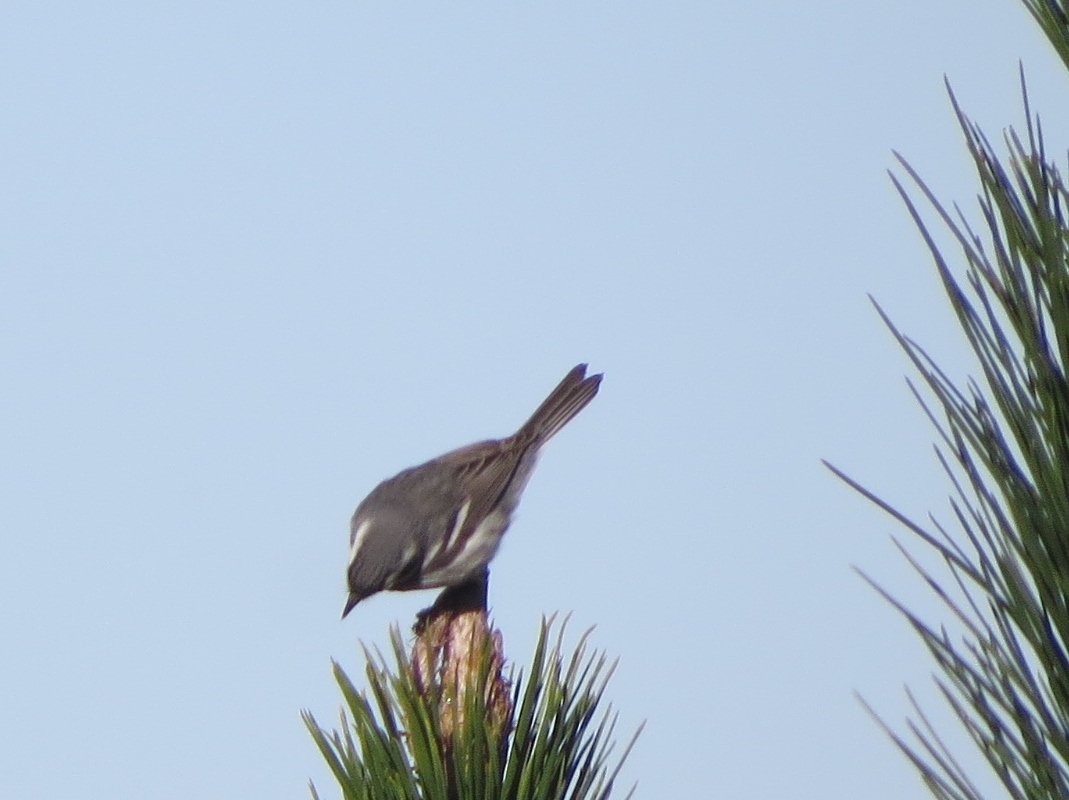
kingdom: Animalia
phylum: Chordata
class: Aves
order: Passeriformes
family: Parulidae
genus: Setophaga
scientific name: Setophaga nigrescens
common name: Black-throated gray warbler
